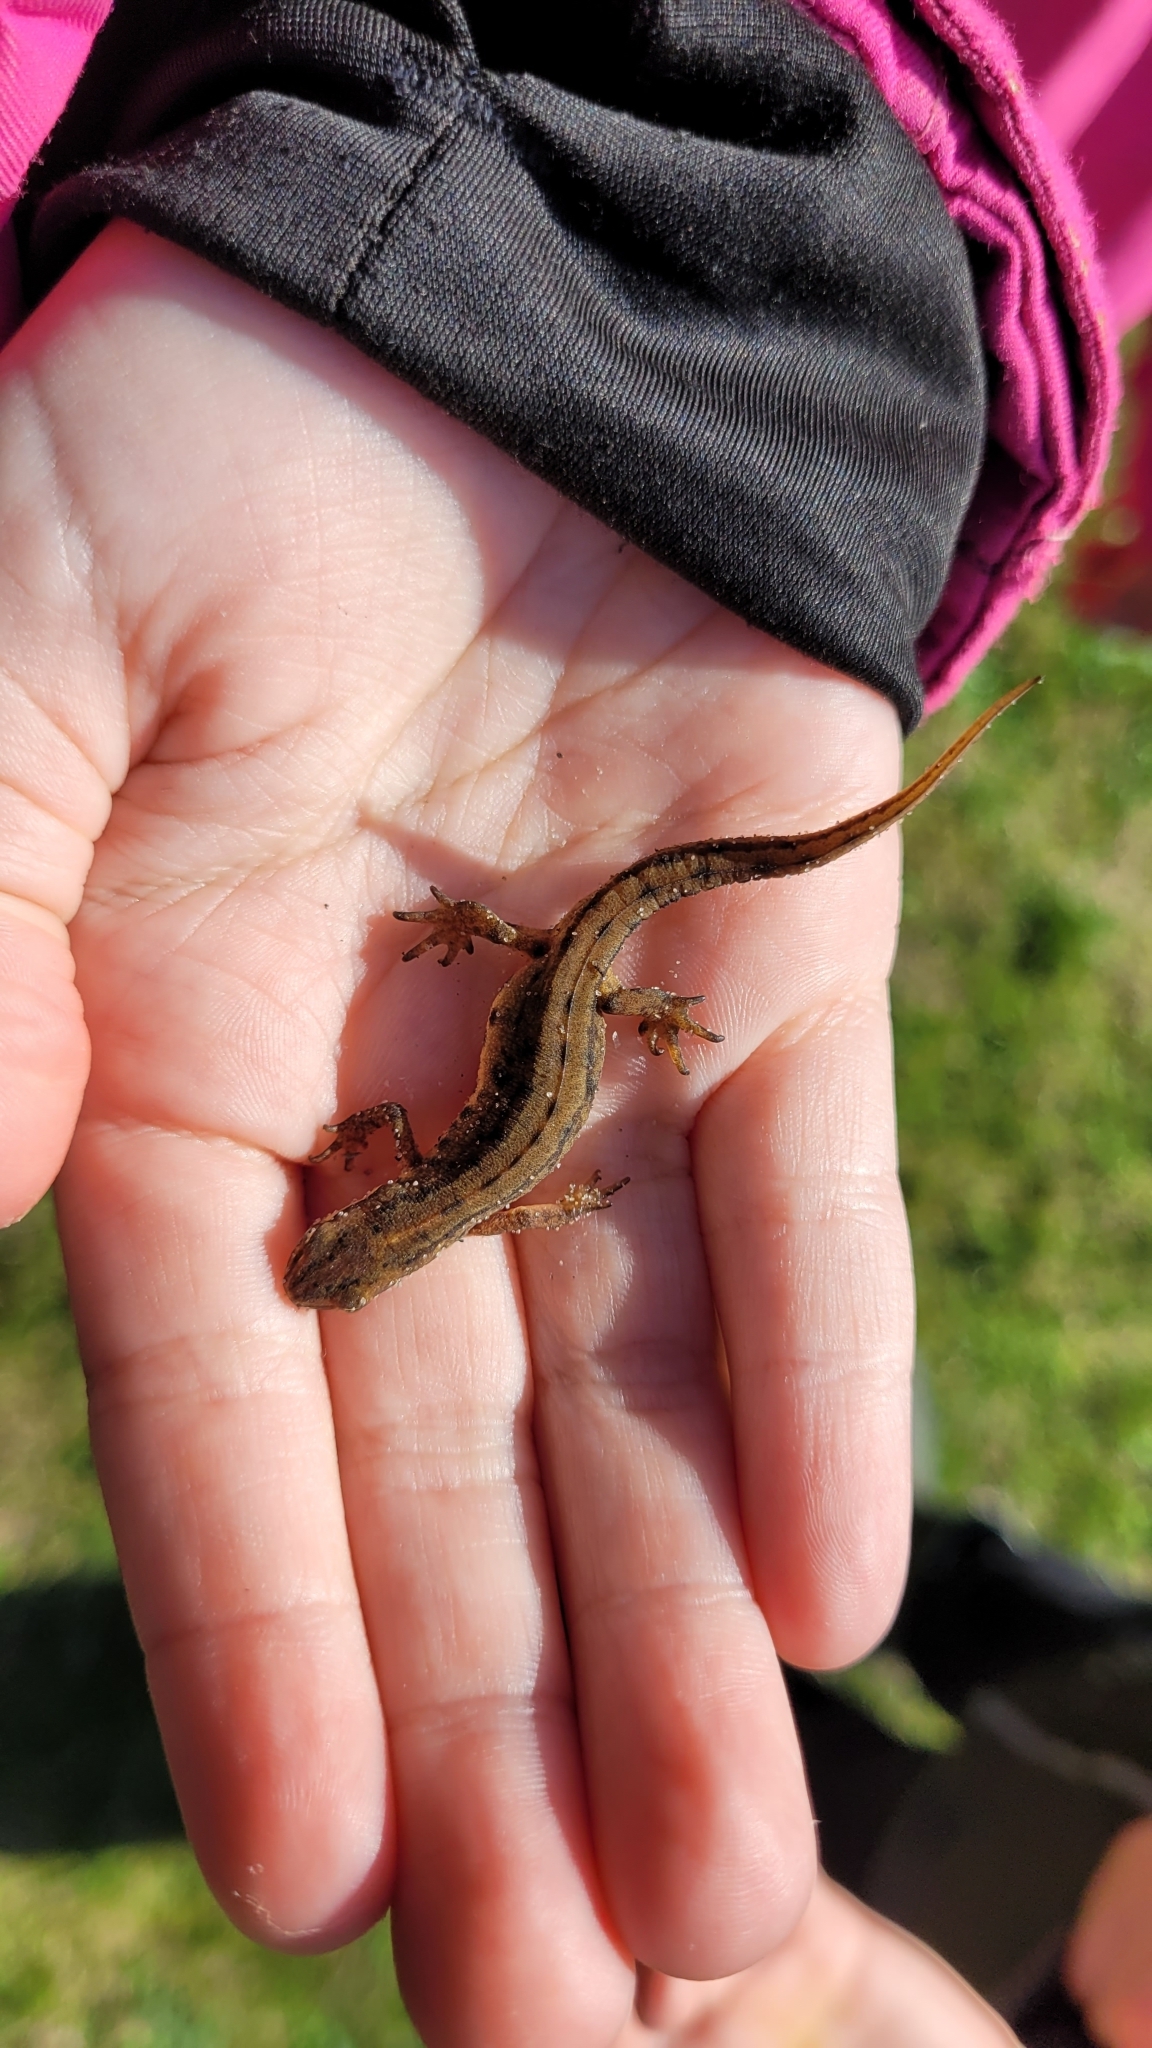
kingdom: Animalia
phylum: Chordata
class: Amphibia
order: Caudata
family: Salamandridae
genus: Lissotriton
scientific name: Lissotriton vulgaris
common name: Smooth newt
